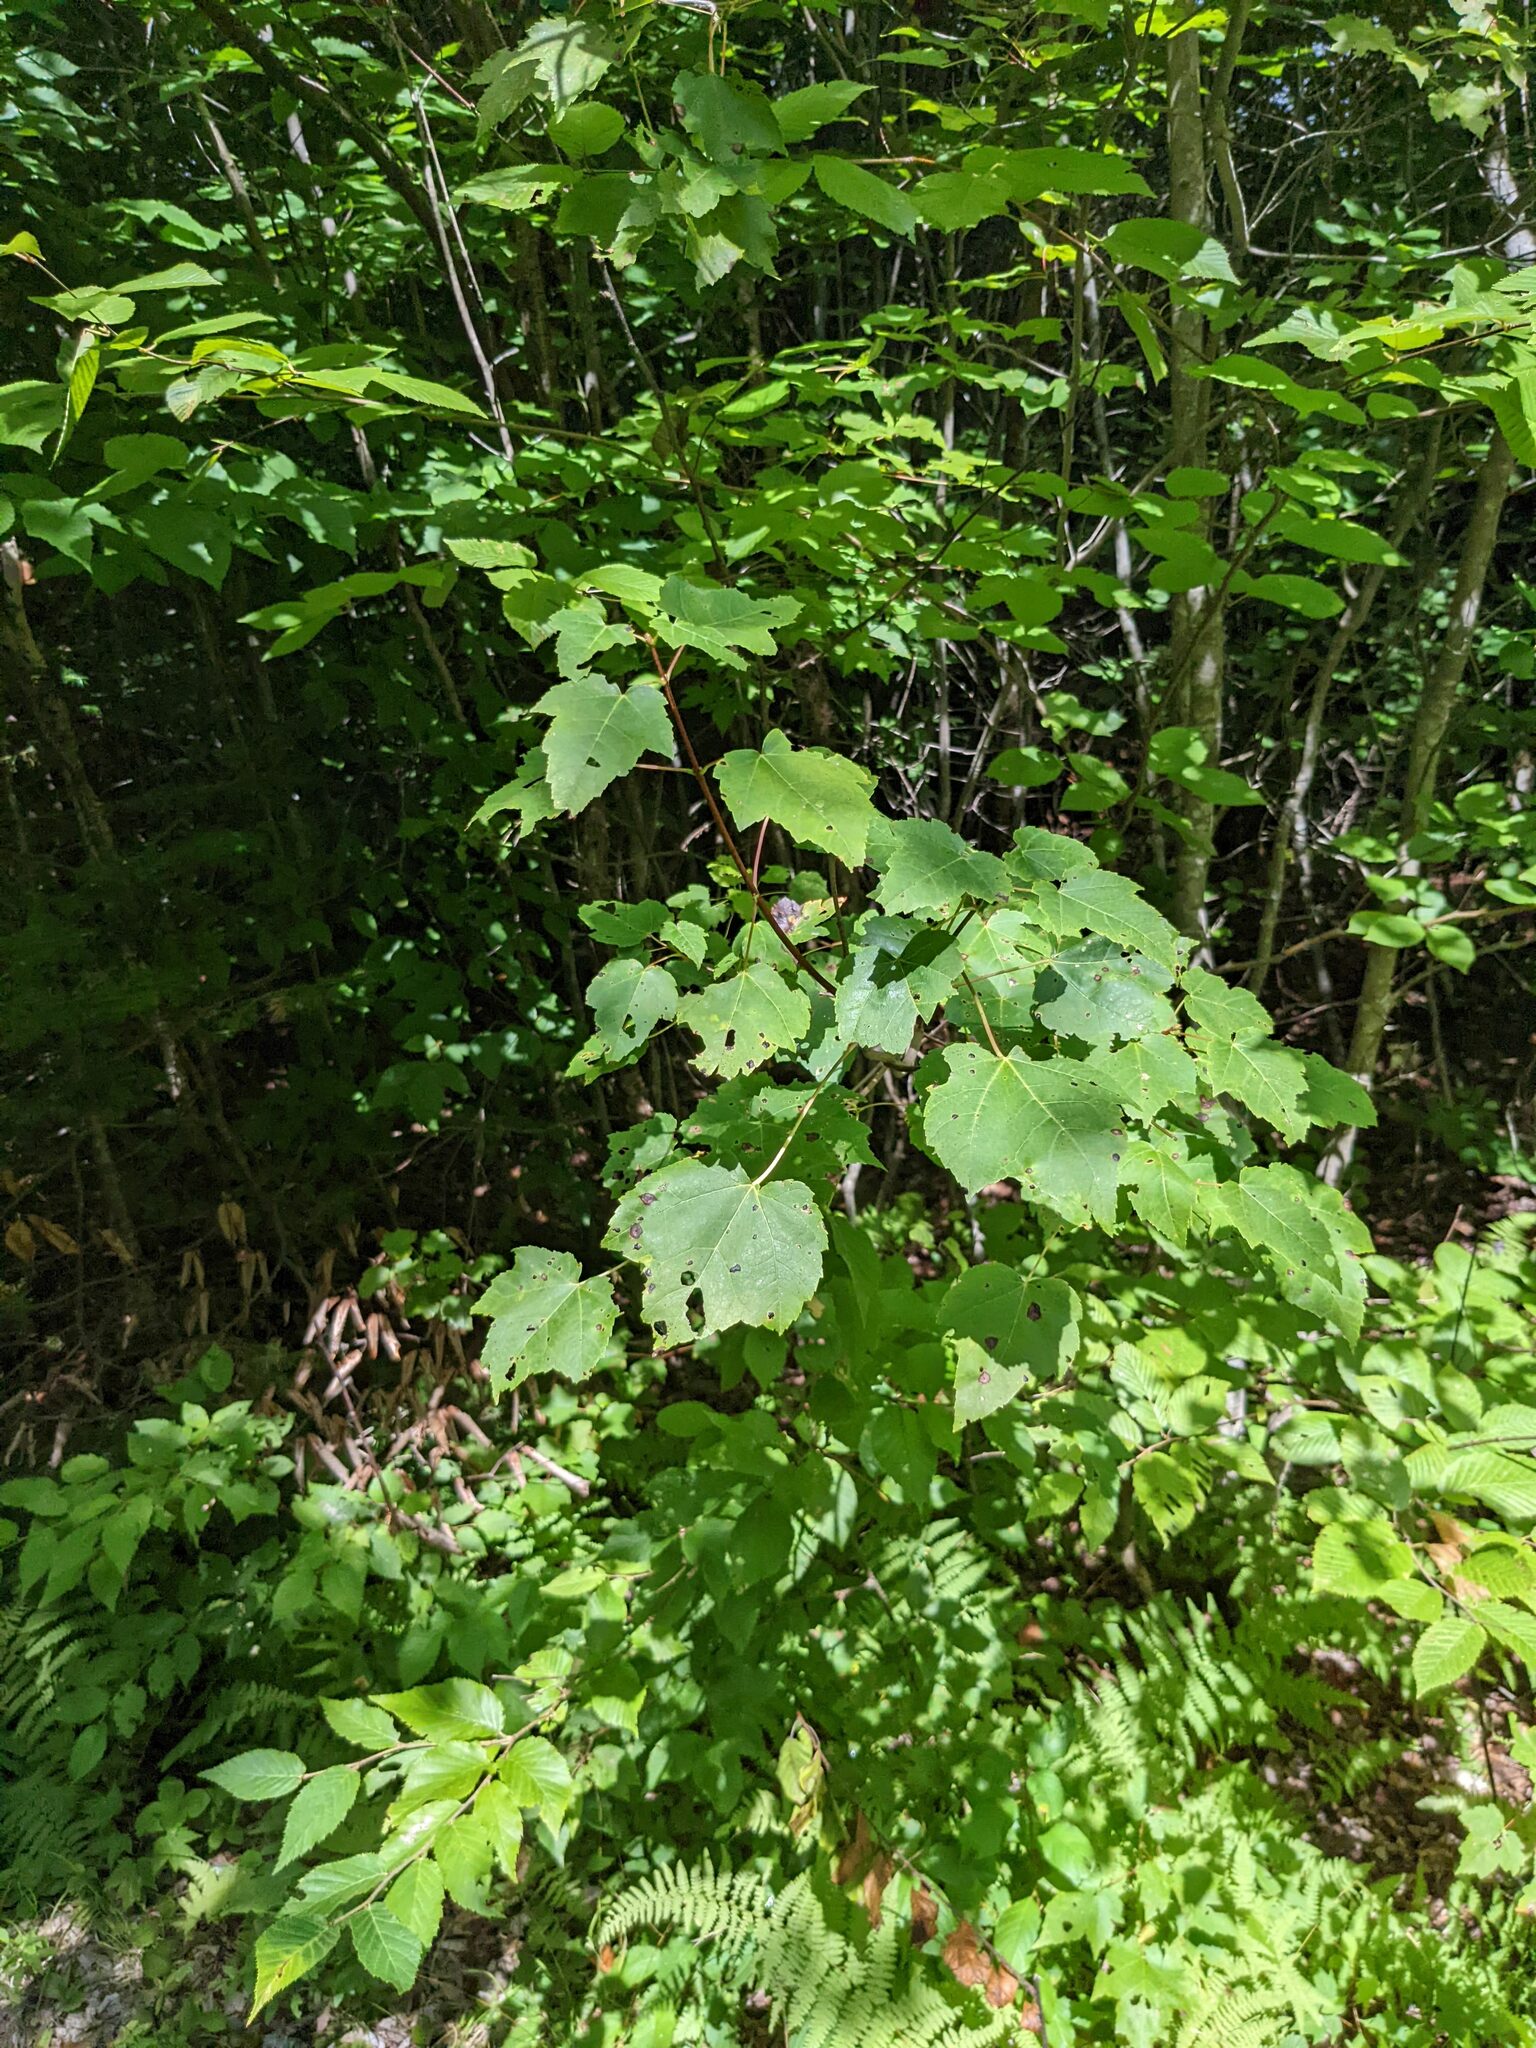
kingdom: Plantae
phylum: Tracheophyta
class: Magnoliopsida
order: Sapindales
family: Sapindaceae
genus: Acer
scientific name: Acer rubrum
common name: Red maple
